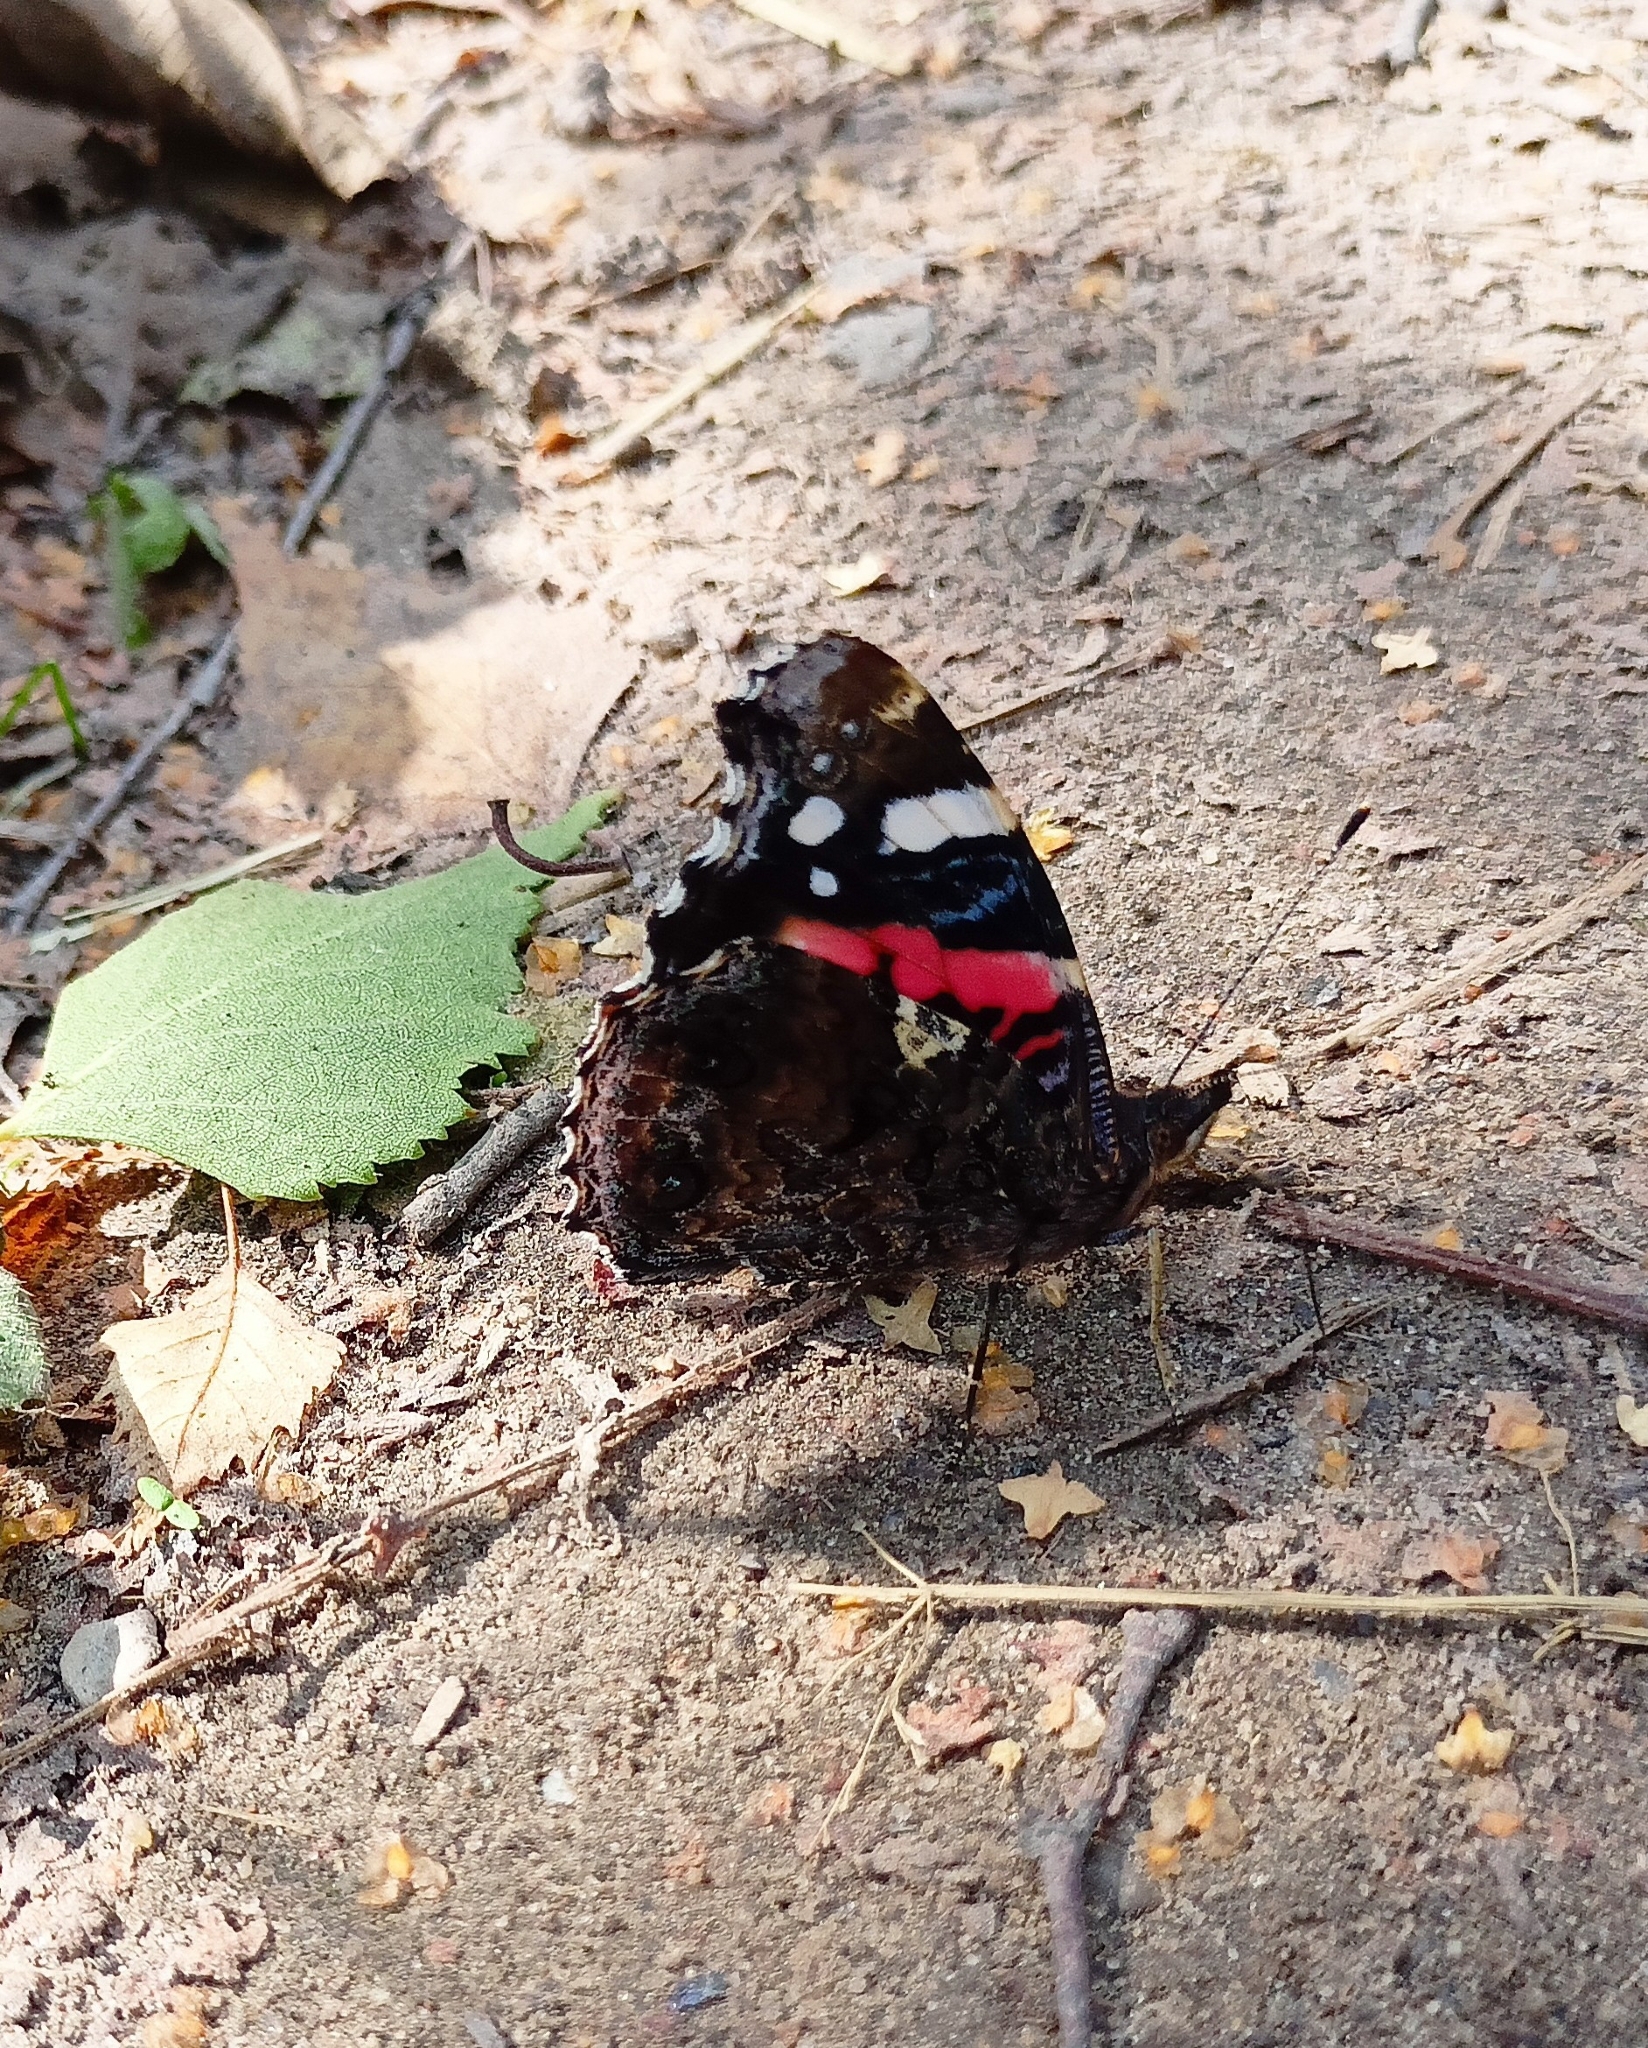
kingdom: Animalia
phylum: Arthropoda
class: Insecta
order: Lepidoptera
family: Nymphalidae
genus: Vanessa
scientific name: Vanessa atalanta
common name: Red admiral
